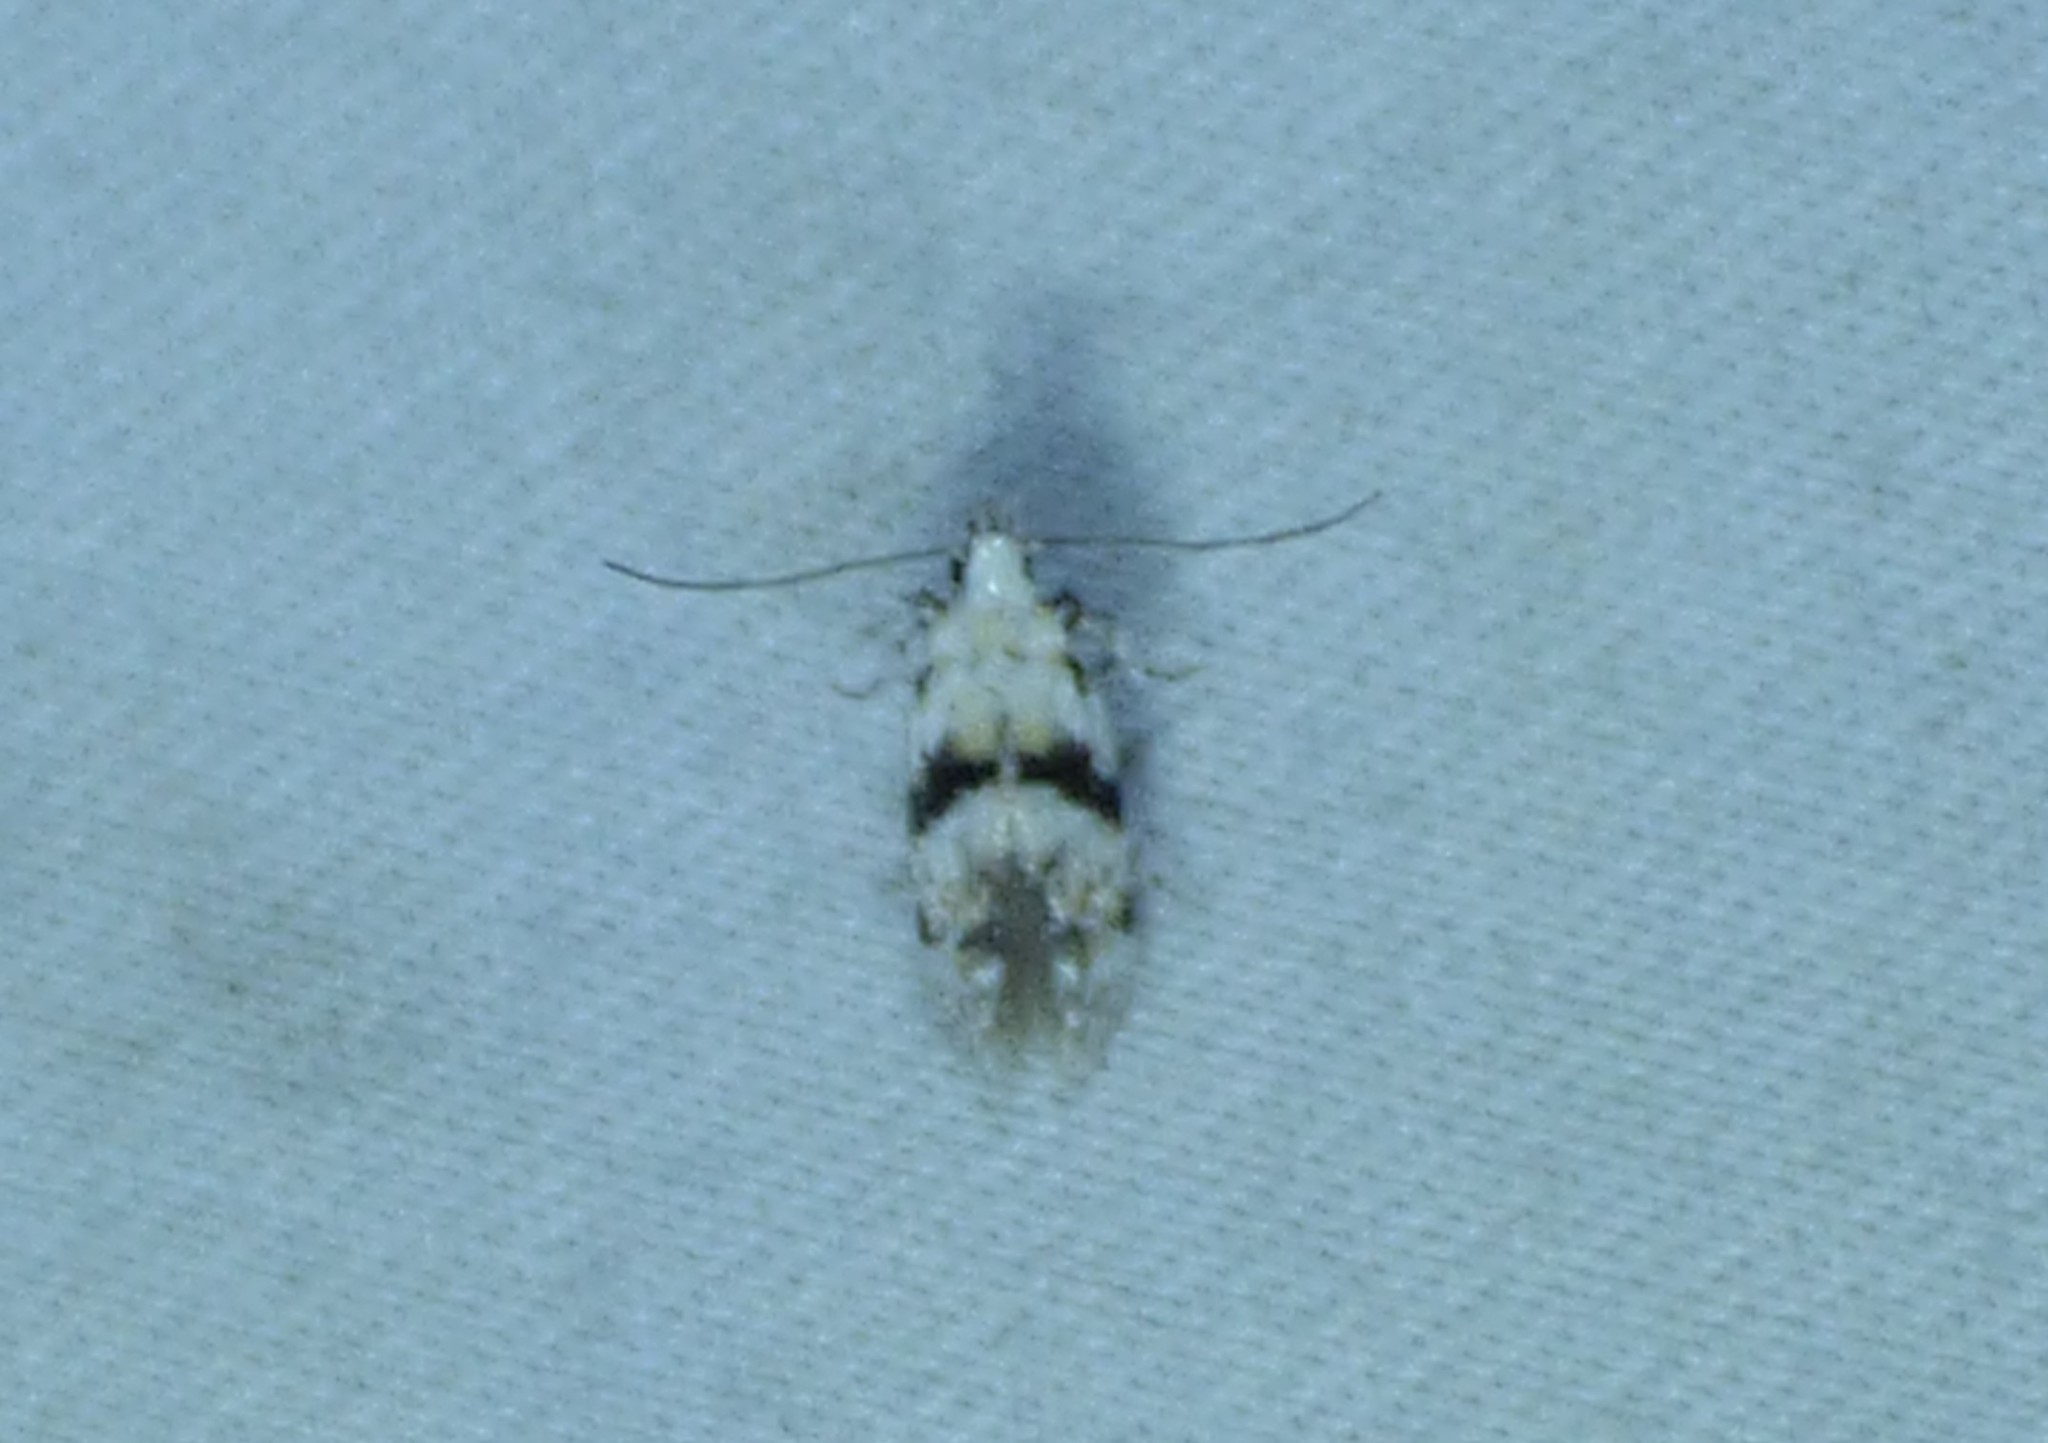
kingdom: Animalia
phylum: Arthropoda
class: Insecta
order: Lepidoptera
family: Gelechiidae
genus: Arogalea
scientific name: Arogalea cristifasciella
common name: White stripe-backed moth
